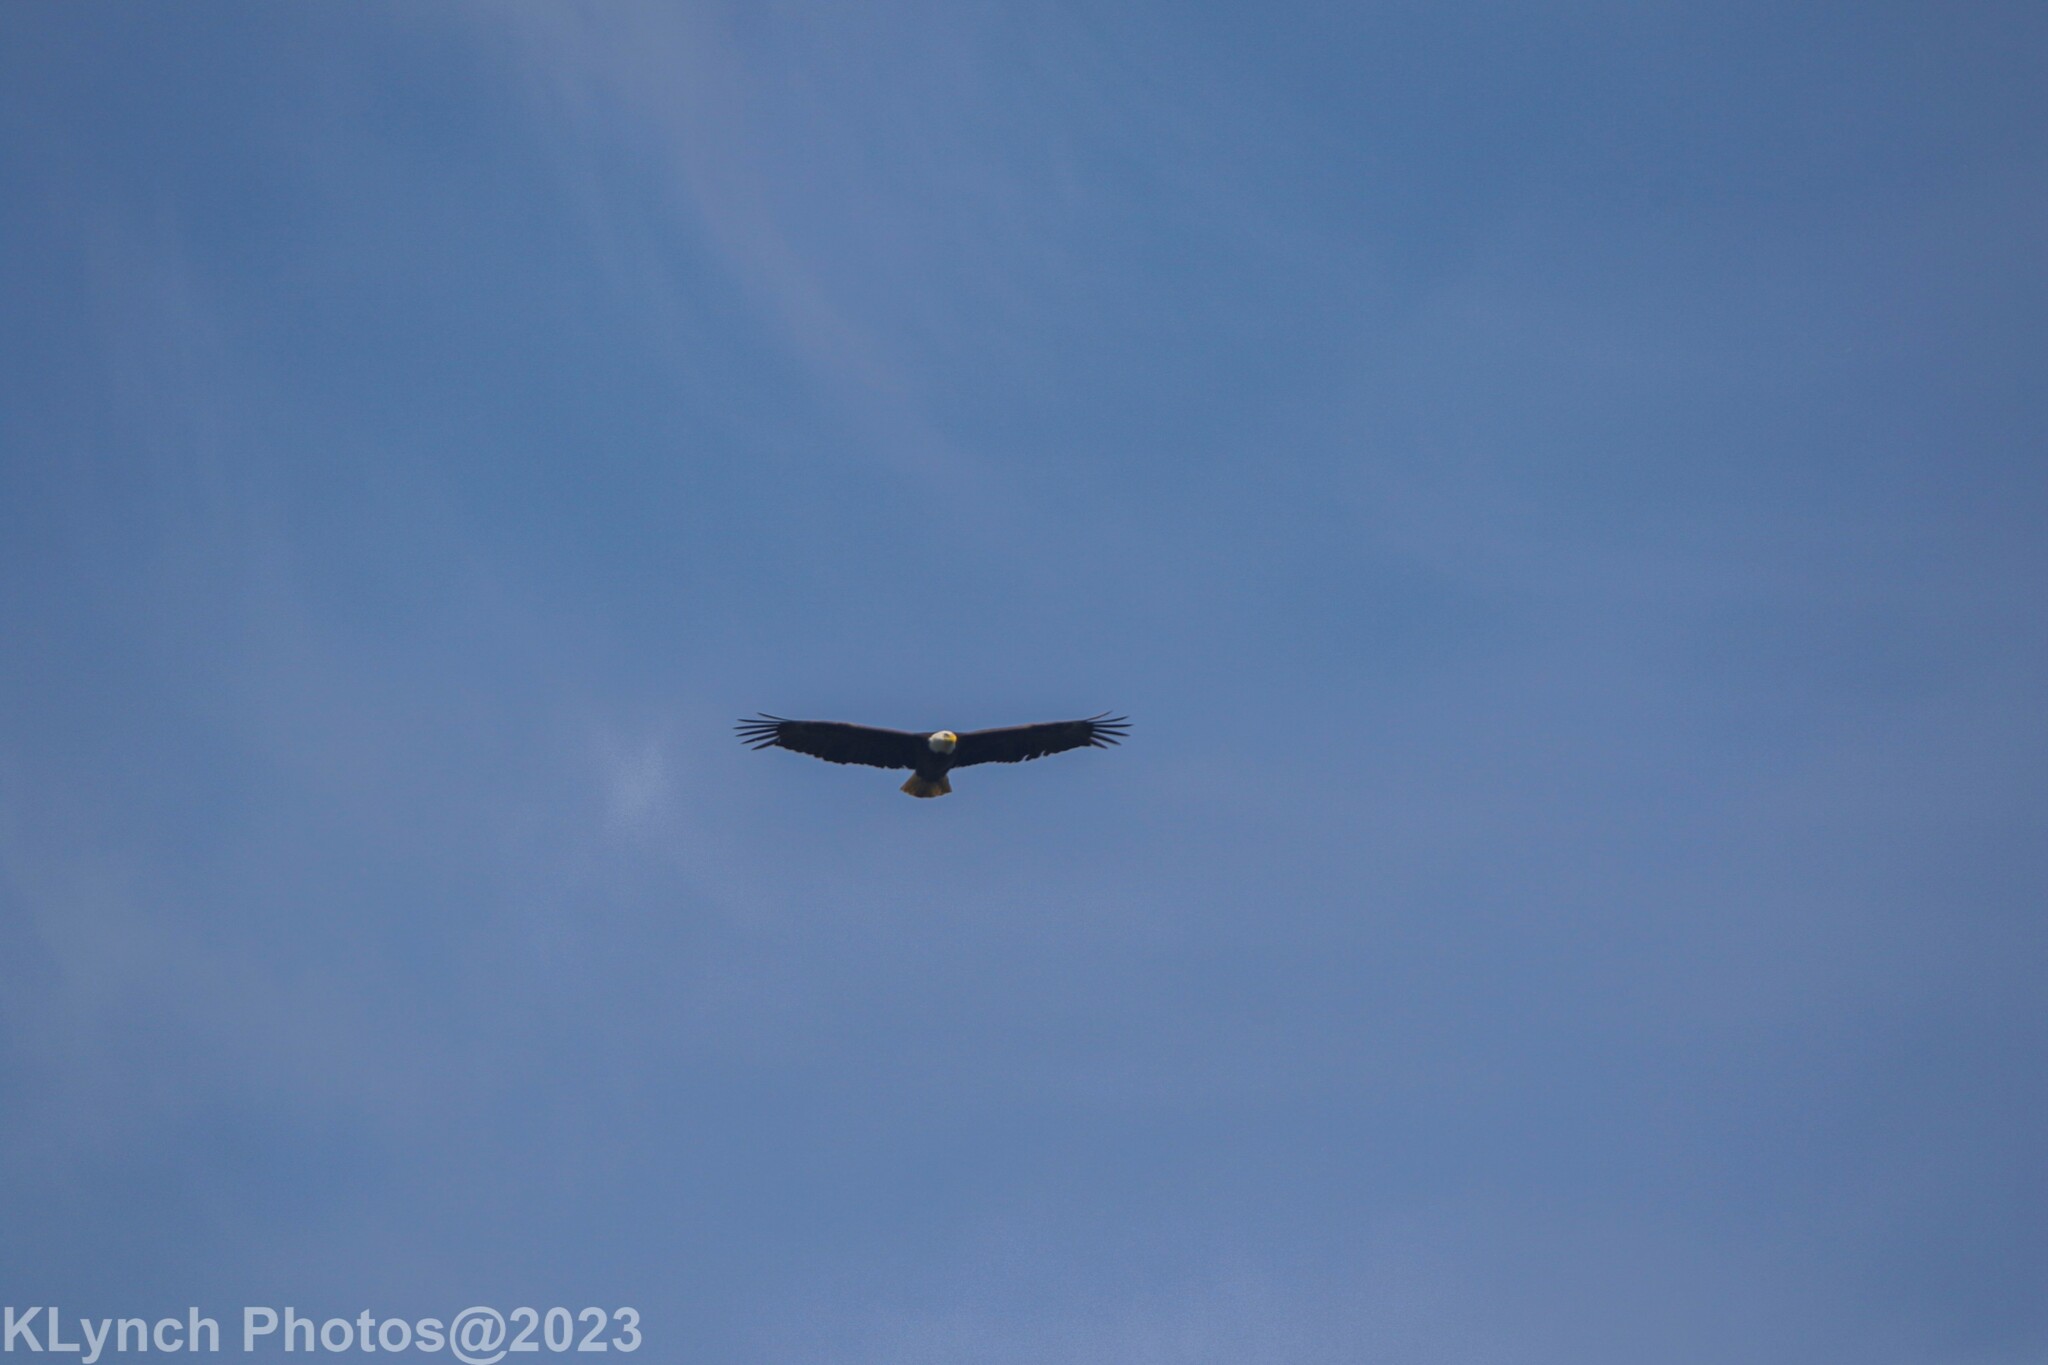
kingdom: Animalia
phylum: Chordata
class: Aves
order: Accipitriformes
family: Accipitridae
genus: Haliaeetus
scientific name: Haliaeetus leucocephalus
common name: Bald eagle
